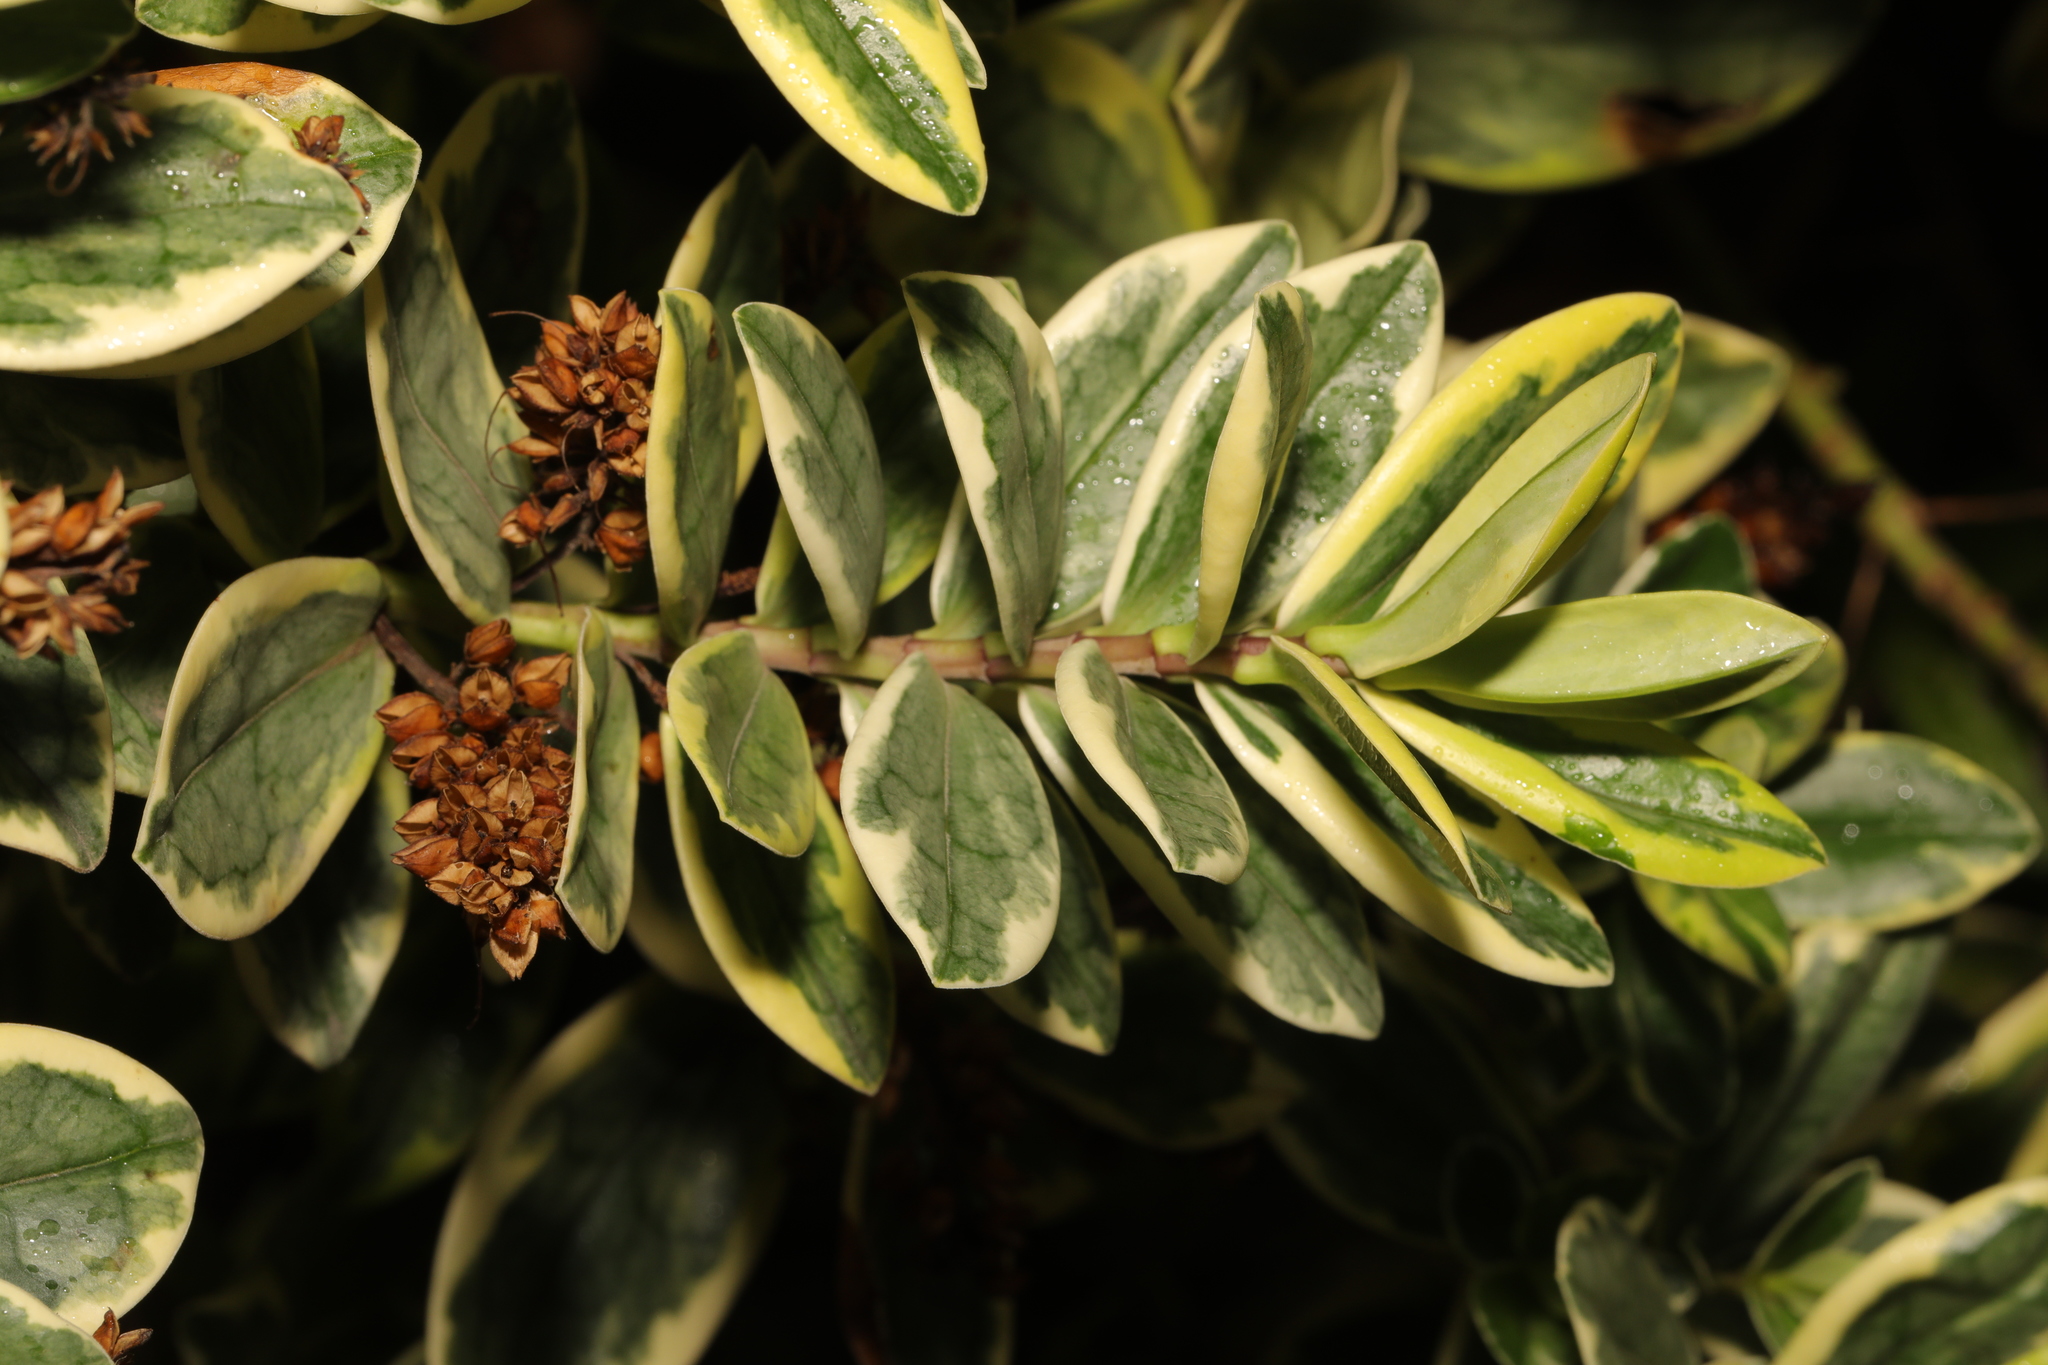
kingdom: Plantae
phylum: Tracheophyta
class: Magnoliopsida
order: Lamiales
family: Plantaginaceae
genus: Veronica
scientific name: Veronica franciscana
